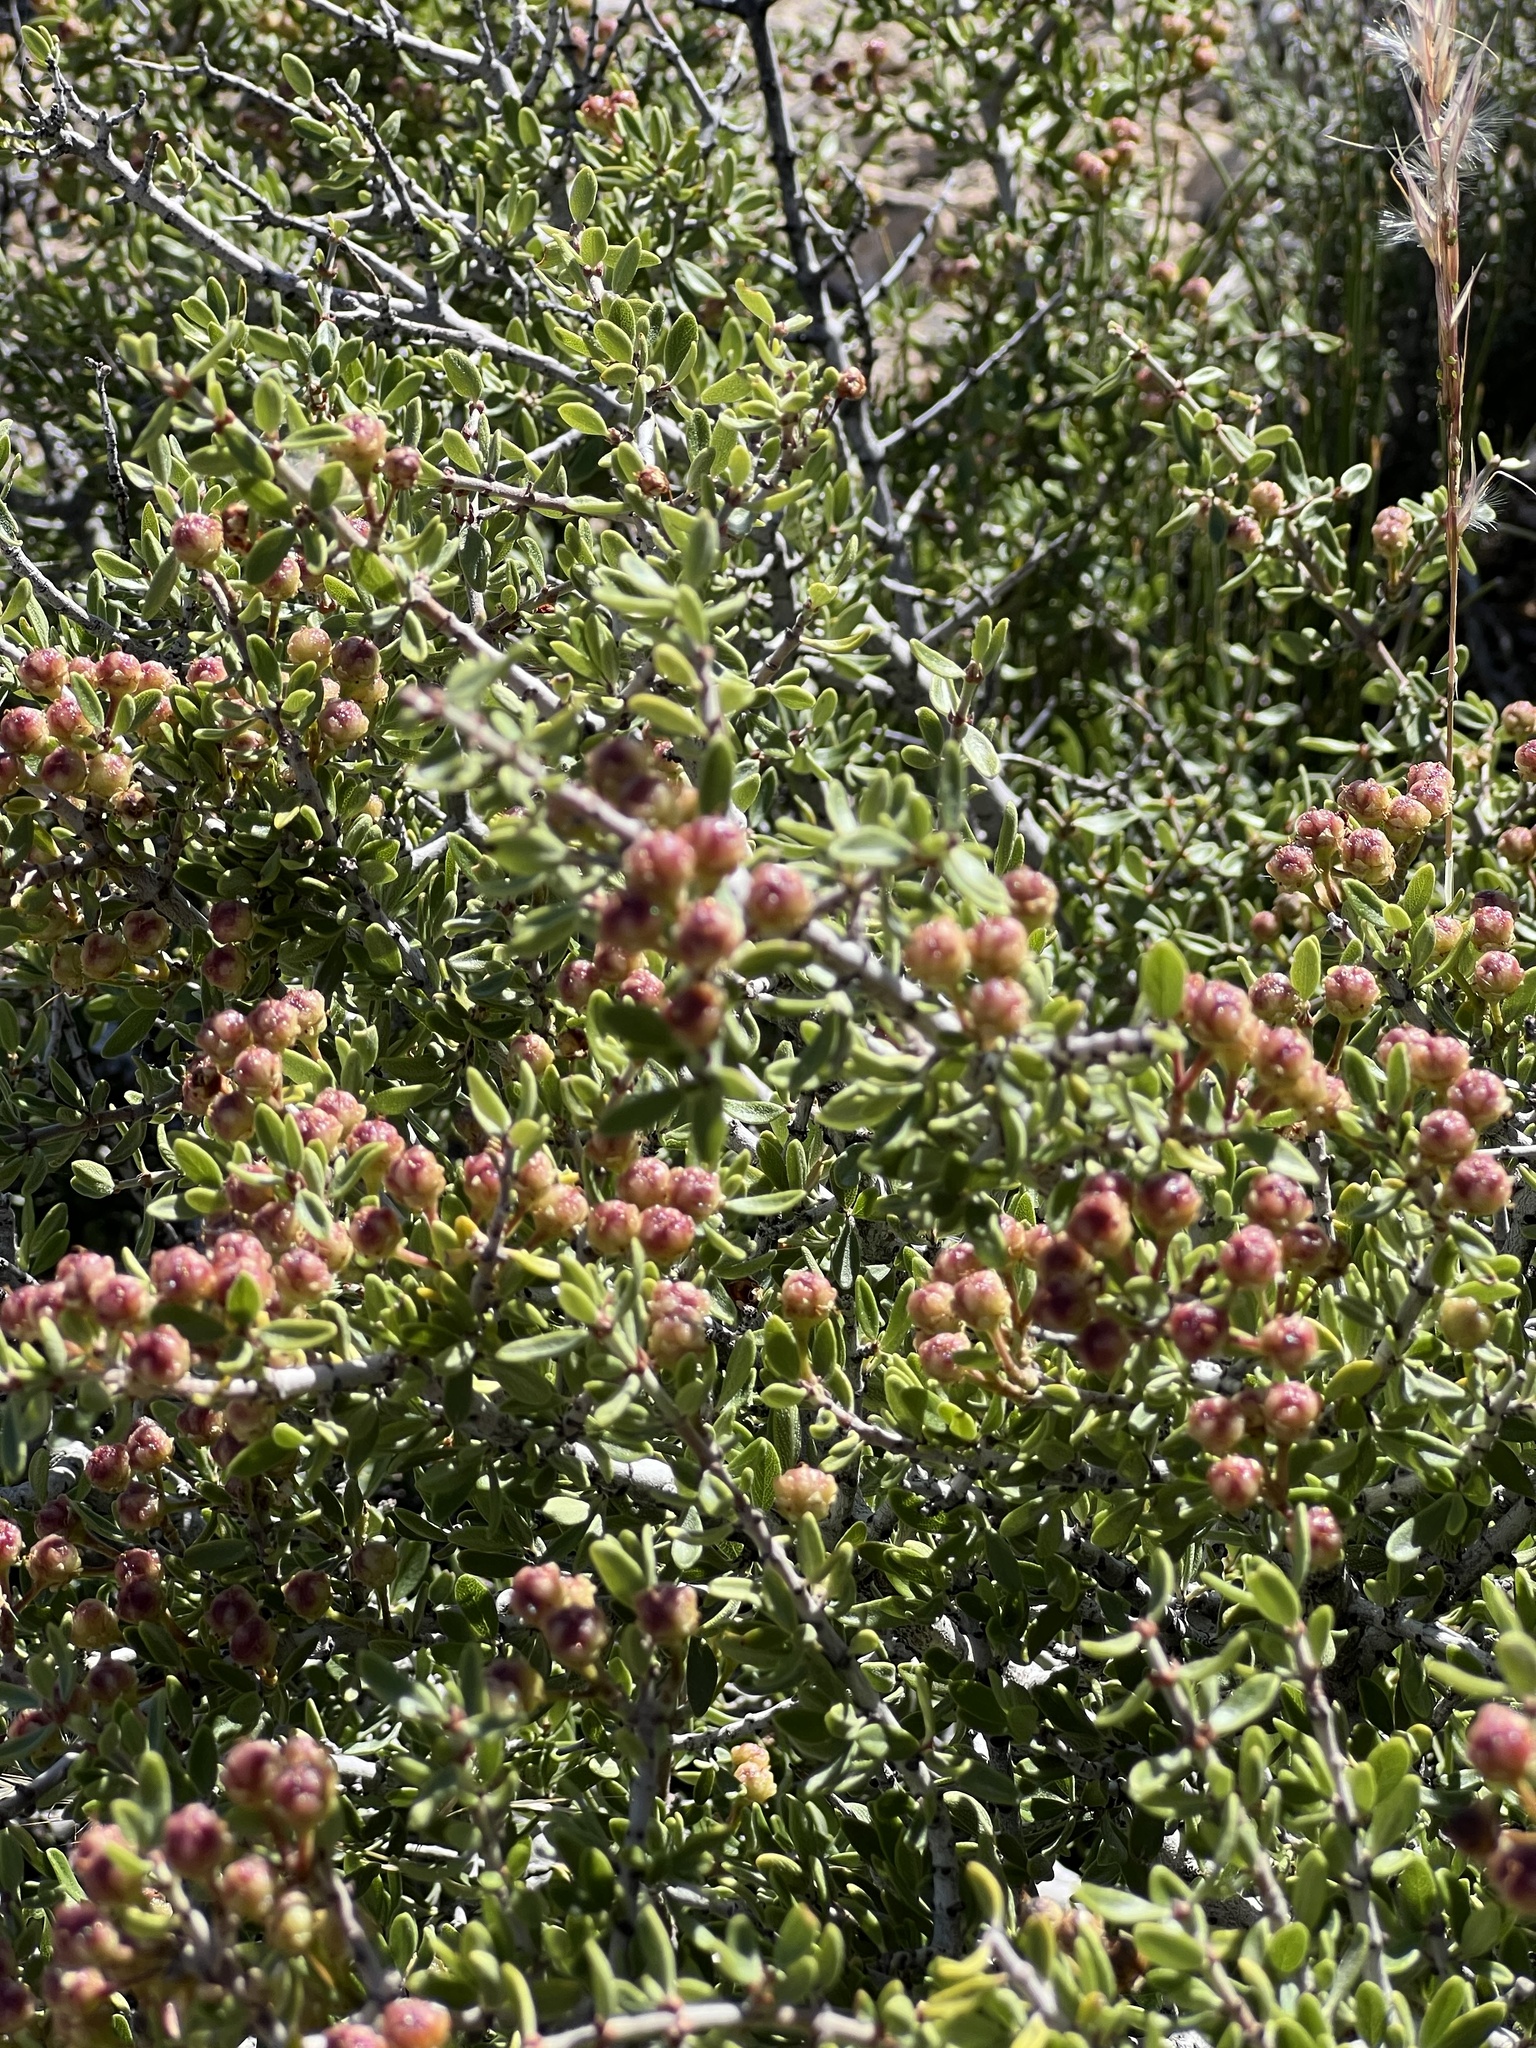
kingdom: Plantae
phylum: Tracheophyta
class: Magnoliopsida
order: Rosales
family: Rhamnaceae
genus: Ceanothus
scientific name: Ceanothus pauciflorus
